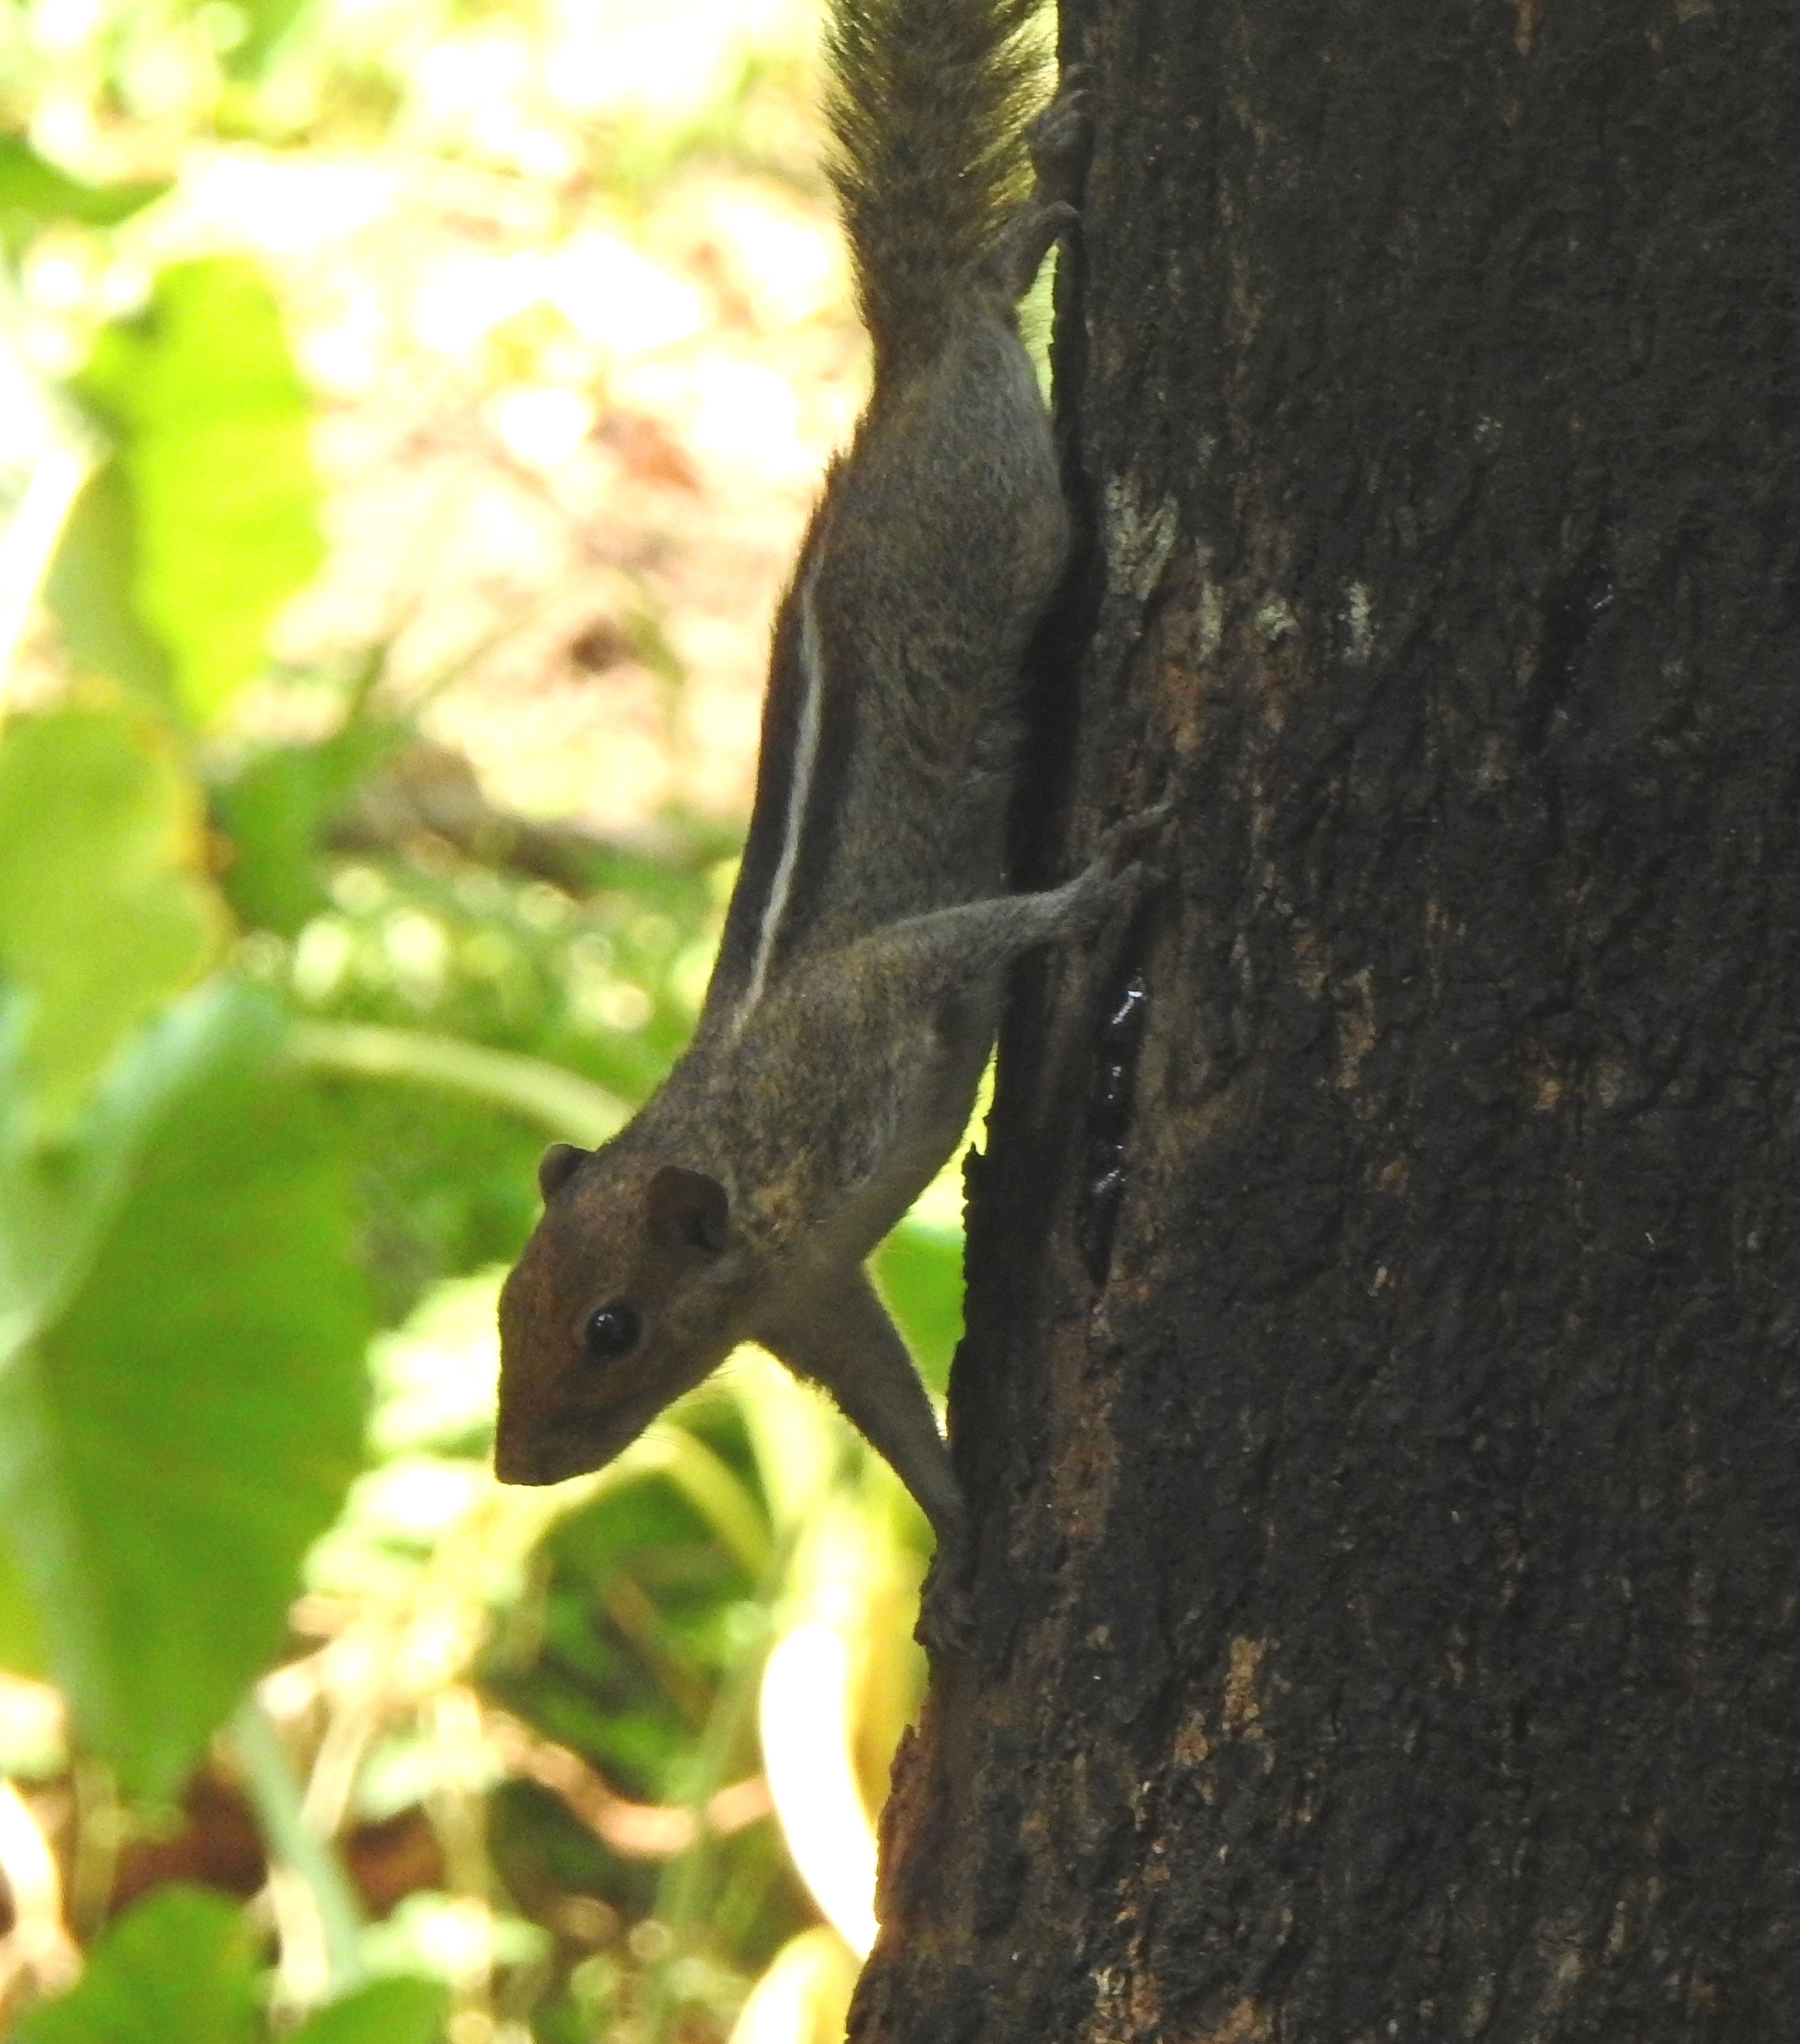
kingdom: Animalia
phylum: Chordata
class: Mammalia
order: Rodentia
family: Sciuridae
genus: Funambulus
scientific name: Funambulus tristriatus
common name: Jungle palm squirrel
